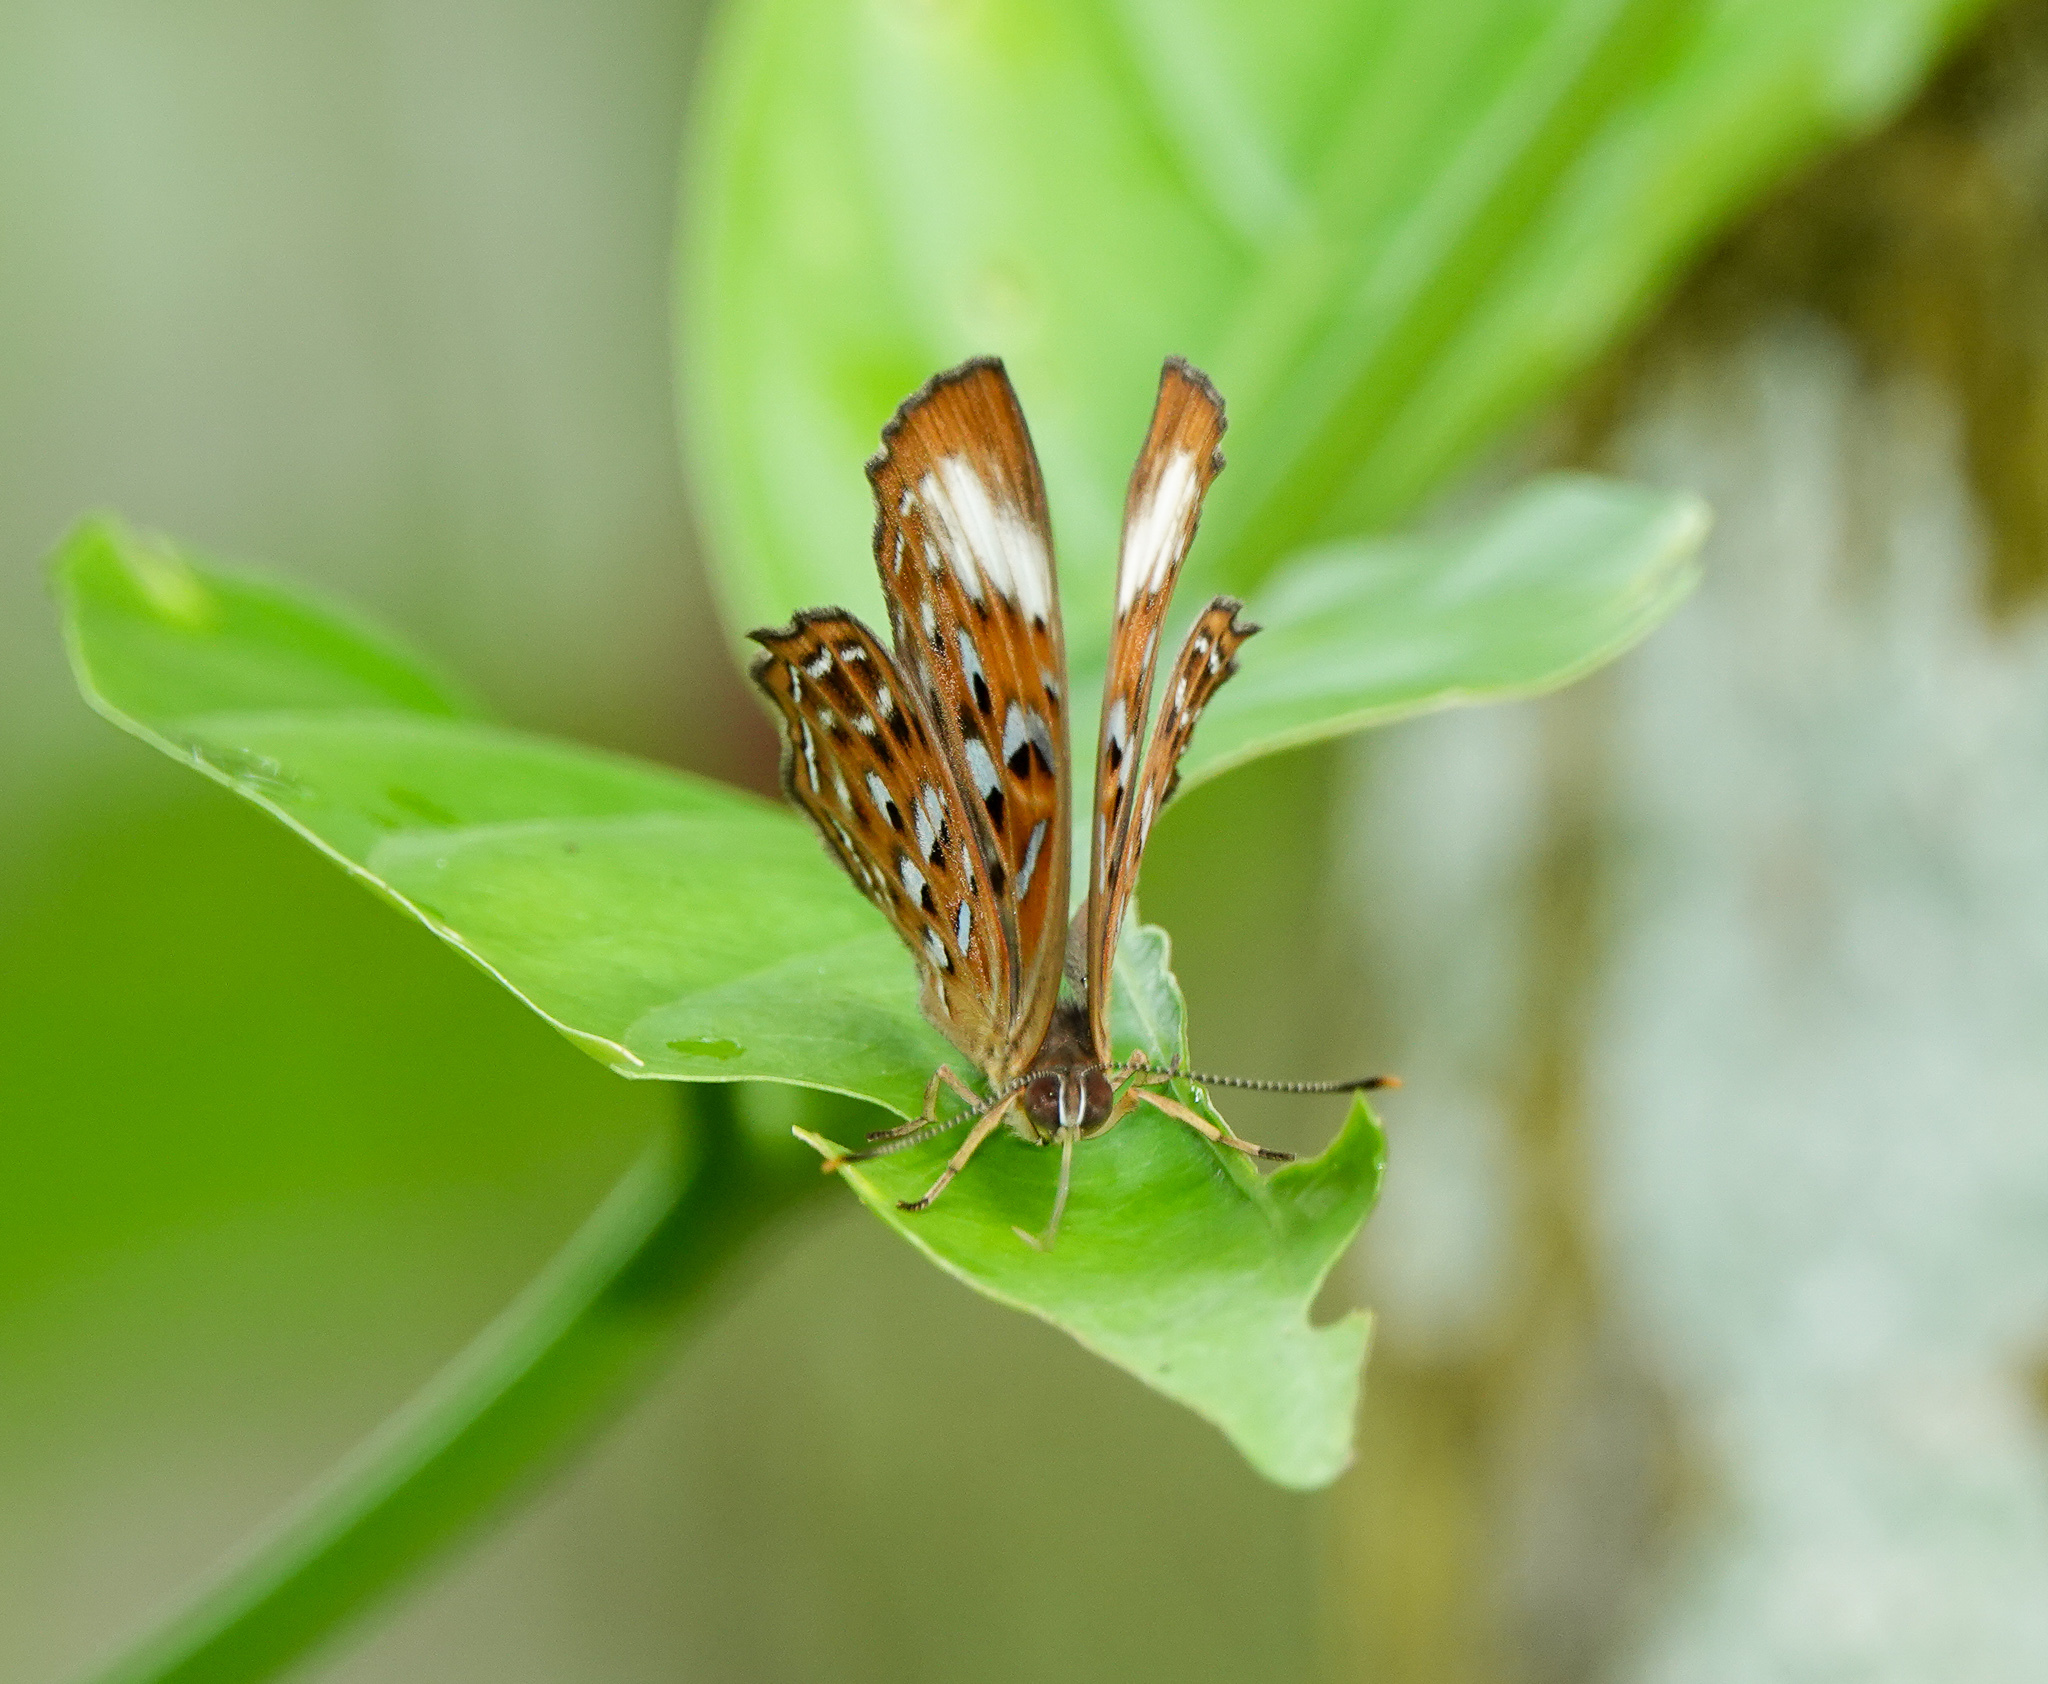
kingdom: Animalia
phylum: Arthropoda
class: Insecta
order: Lepidoptera
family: Erebidae
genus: Dysschema
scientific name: Dysschema
